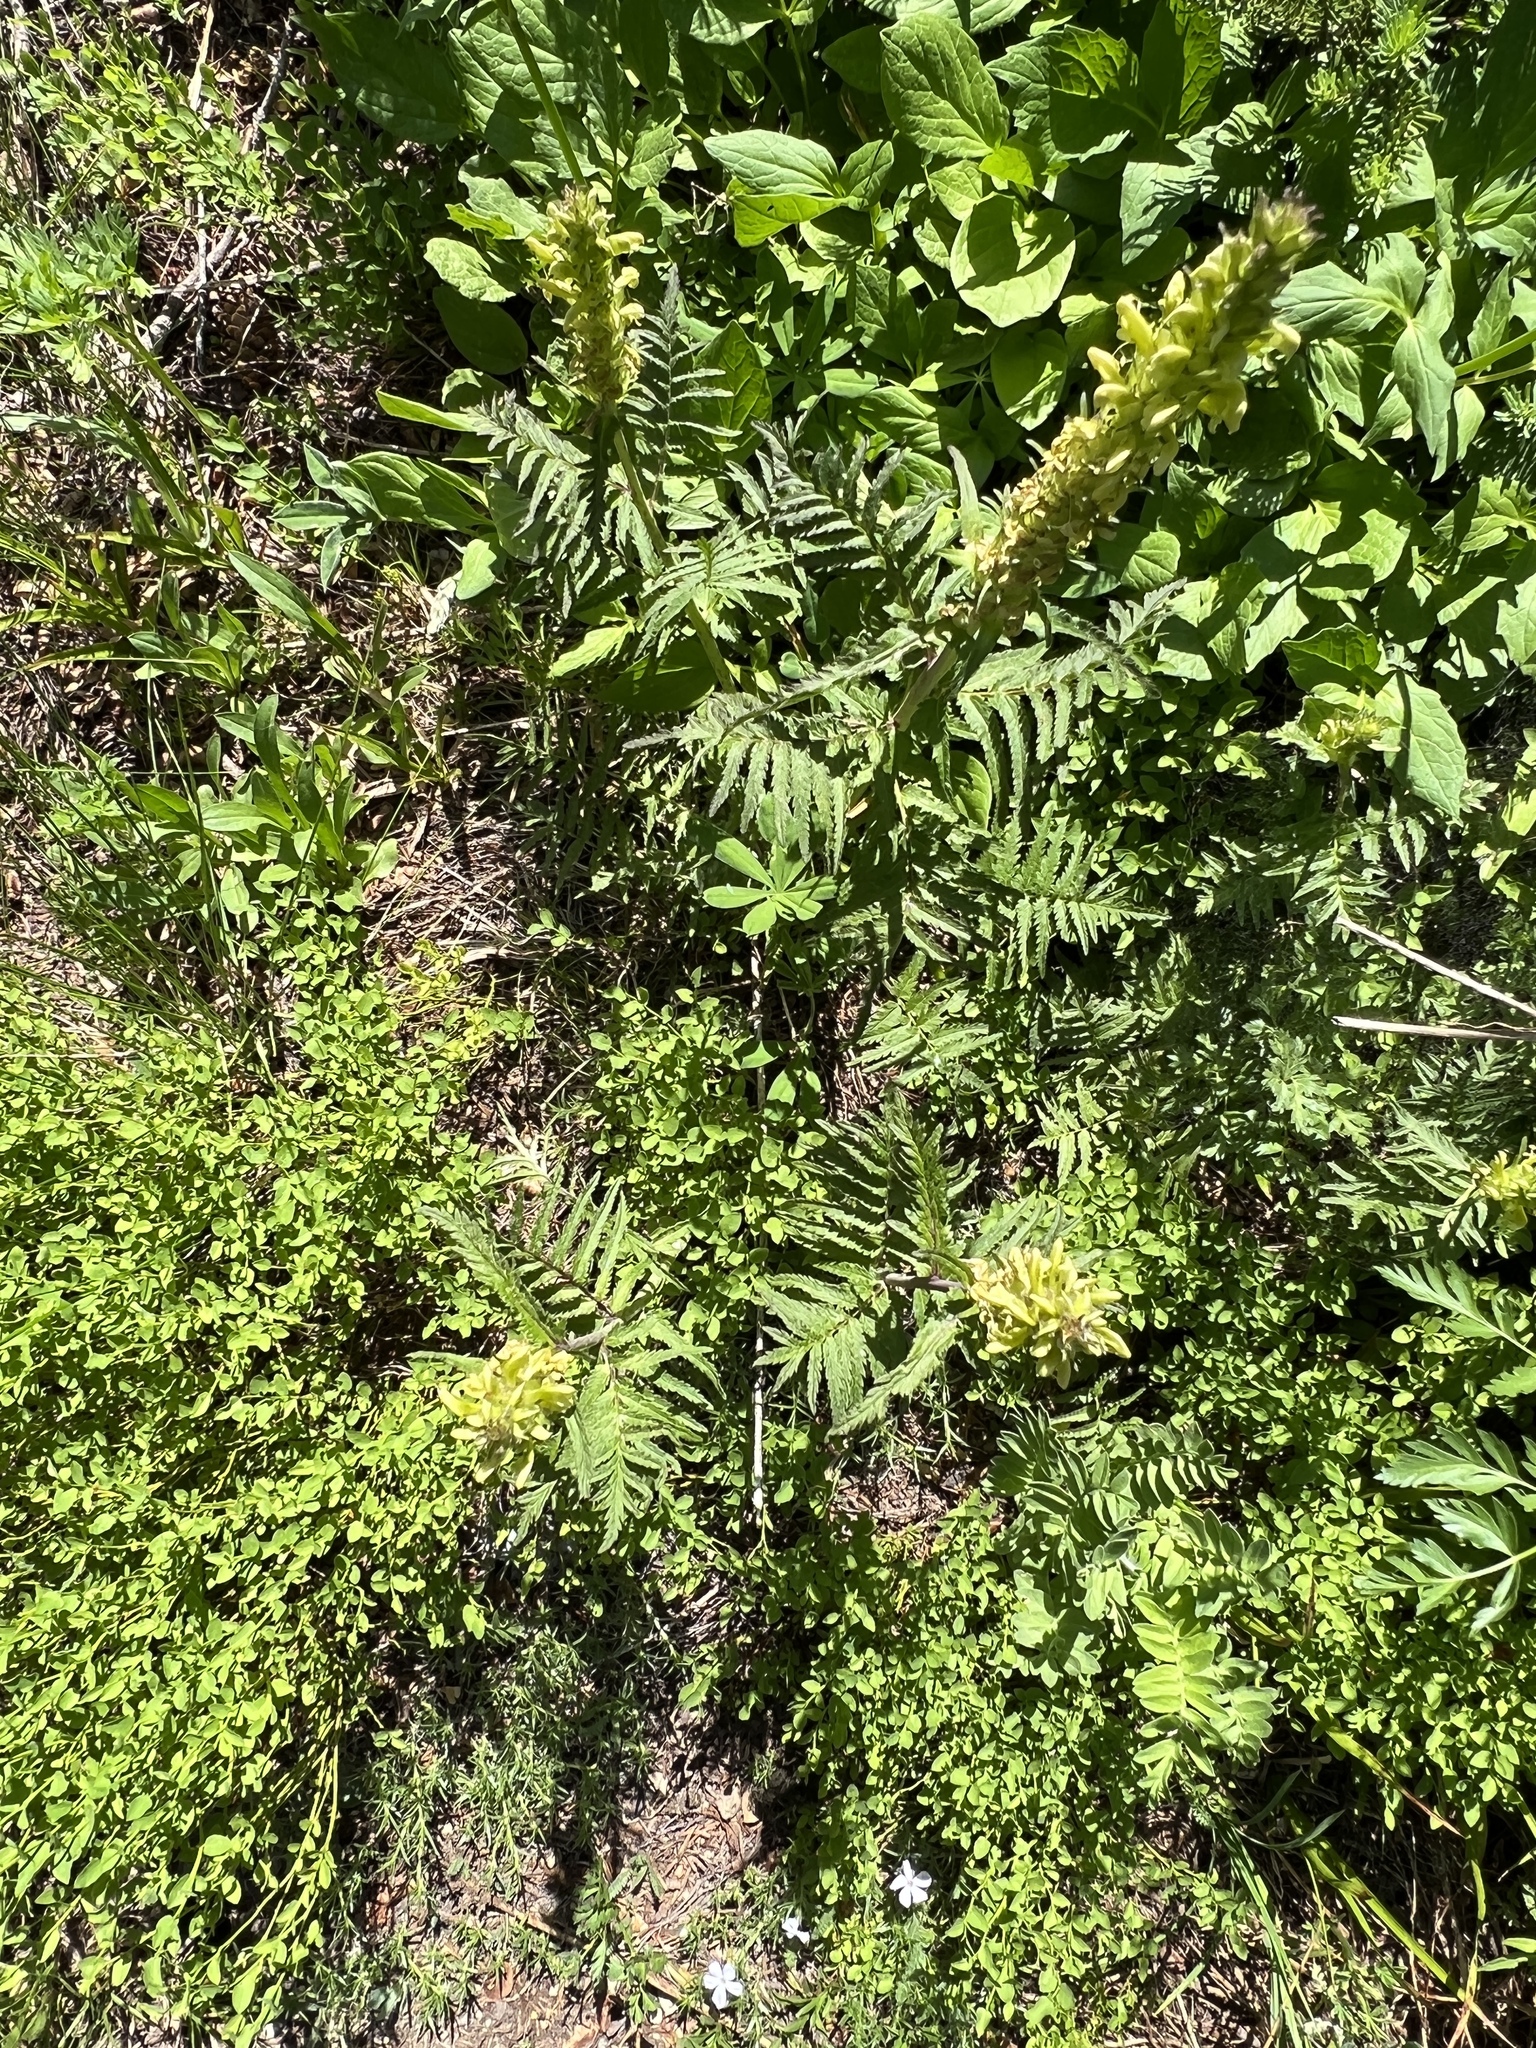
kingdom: Plantae
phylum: Tracheophyta
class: Magnoliopsida
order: Lamiales
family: Orobanchaceae
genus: Pedicularis
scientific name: Pedicularis bracteosa
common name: Bracted lousewort
